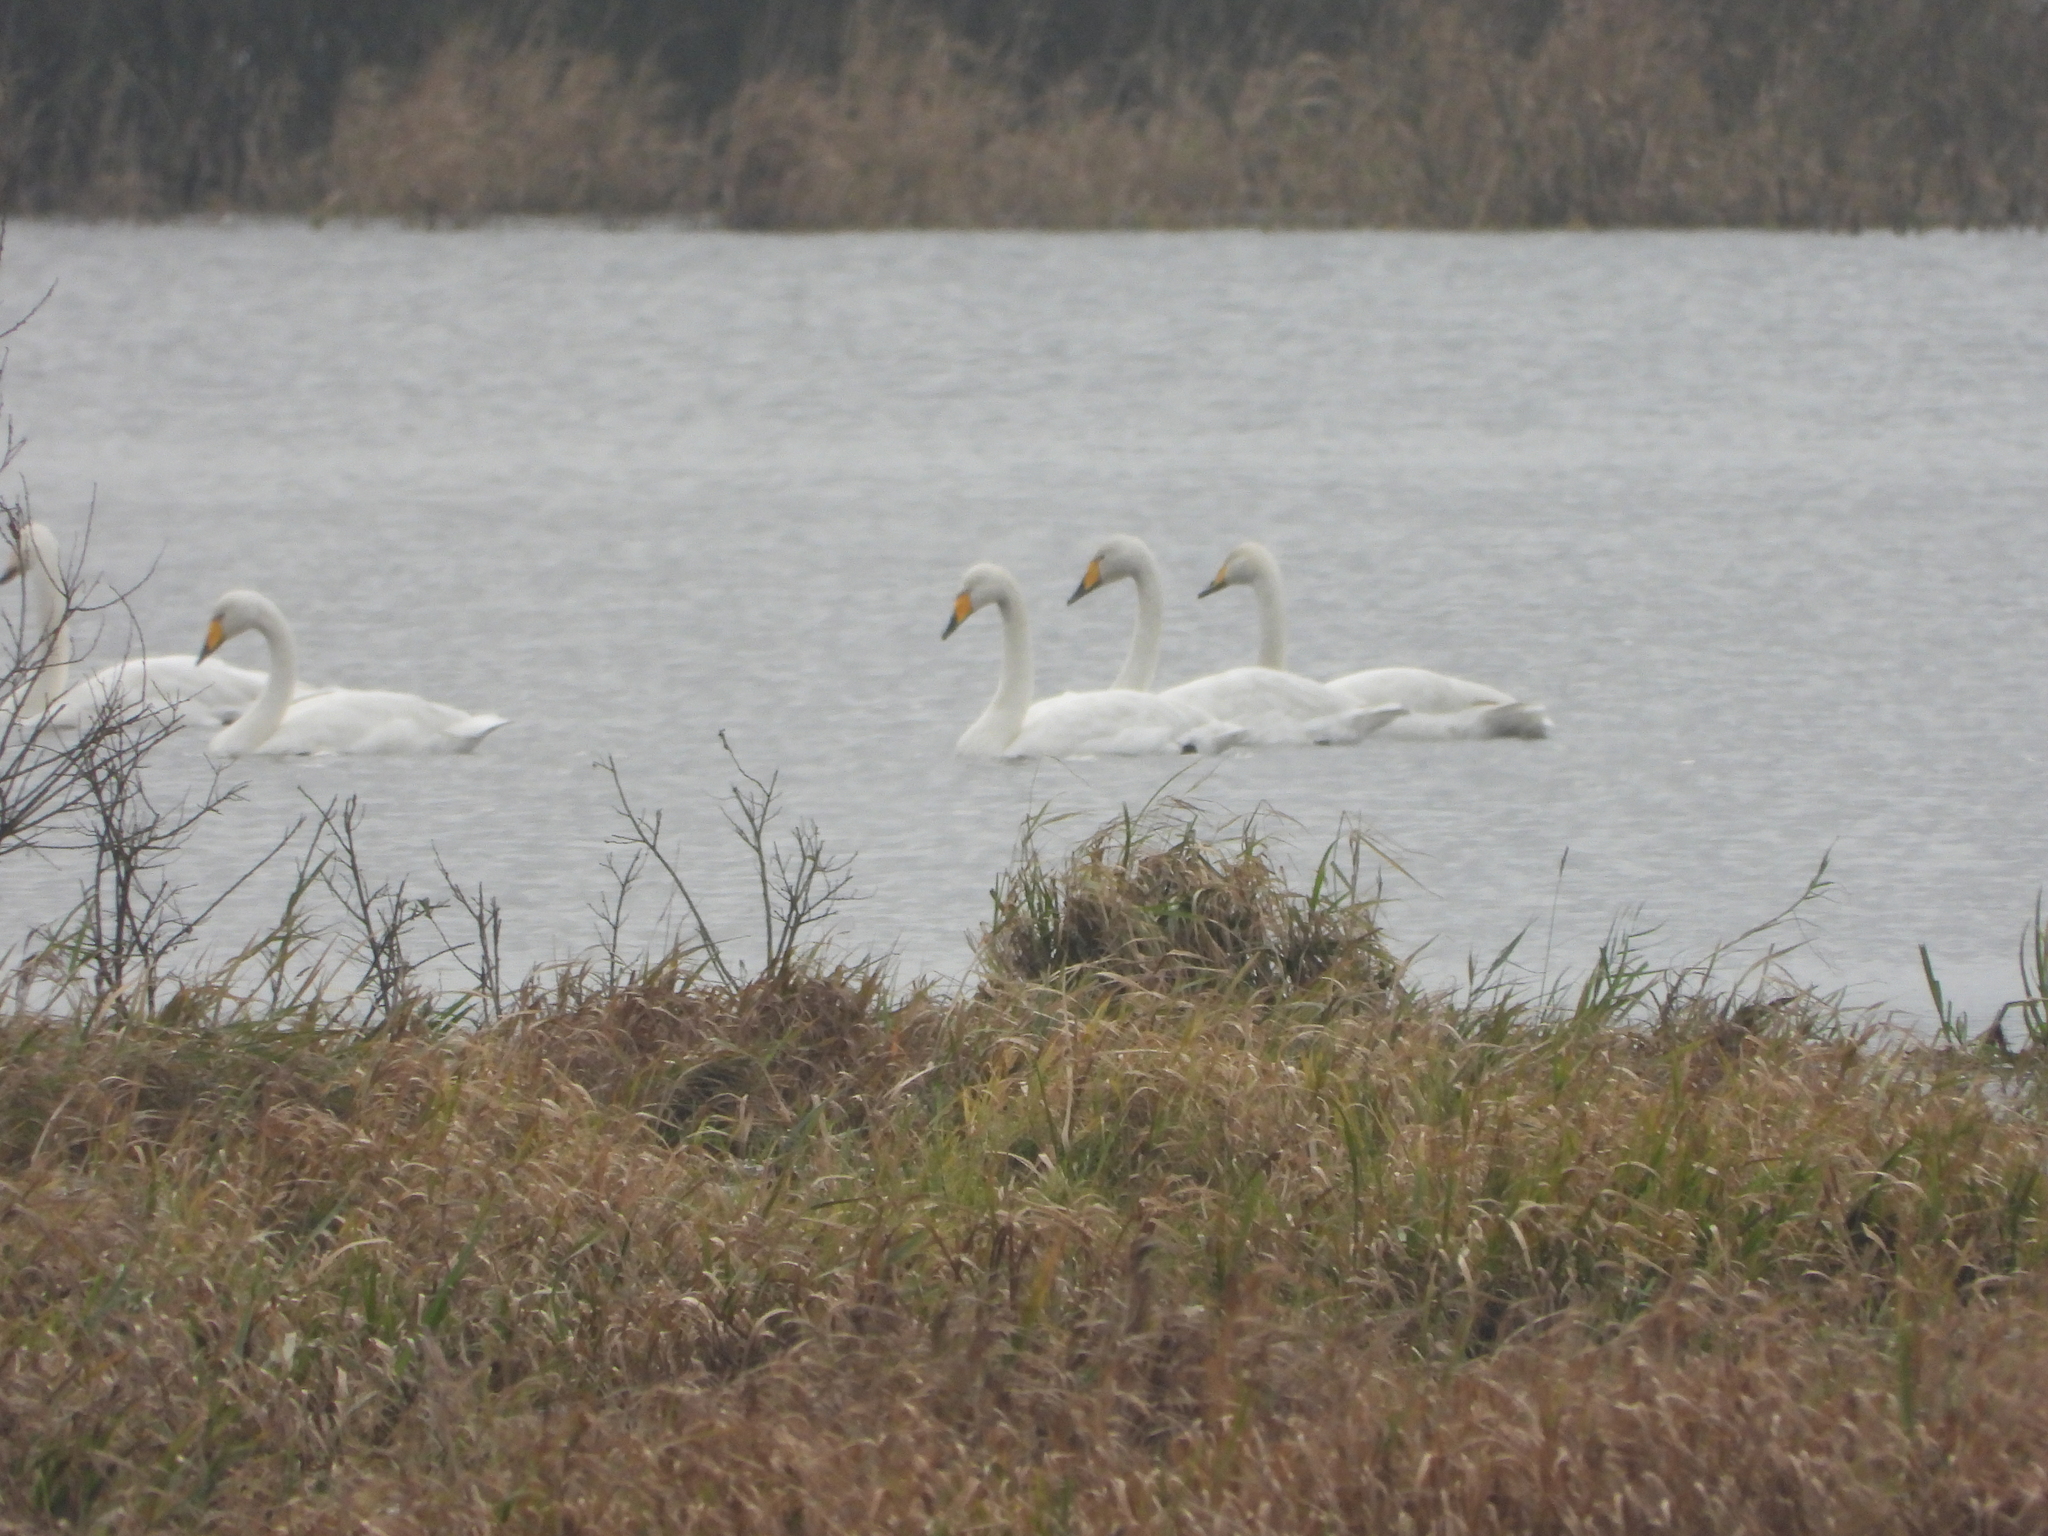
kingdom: Animalia
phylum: Chordata
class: Aves
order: Anseriformes
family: Anatidae
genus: Cygnus
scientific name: Cygnus cygnus
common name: Whooper swan
